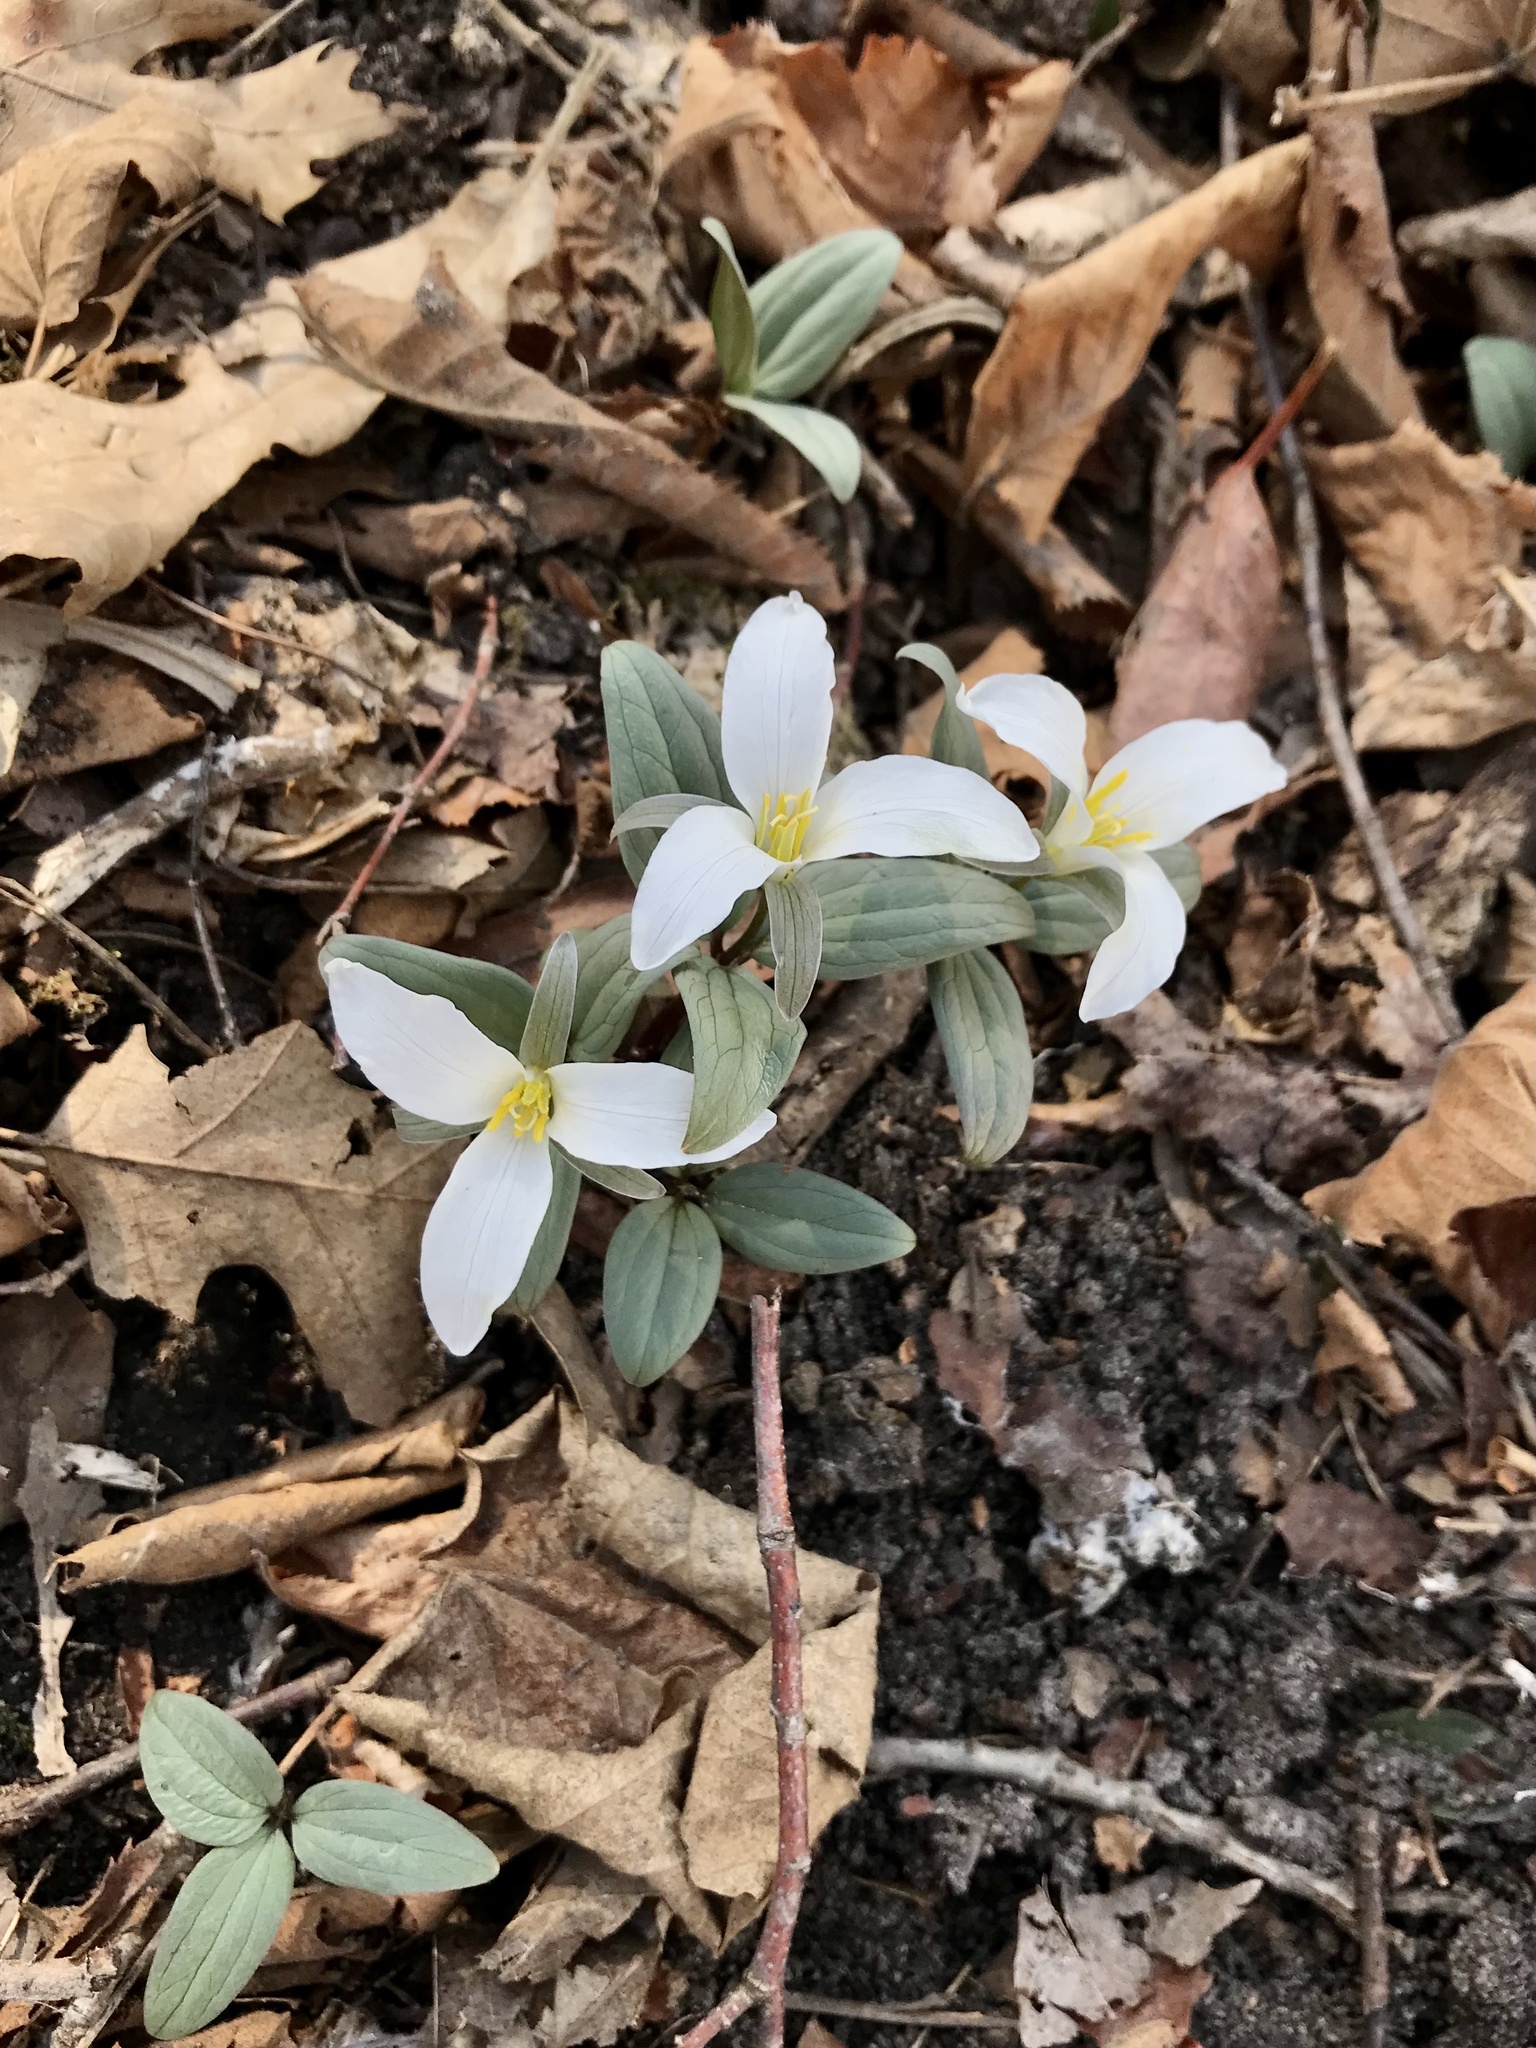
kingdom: Plantae
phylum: Tracheophyta
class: Liliopsida
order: Liliales
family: Melanthiaceae
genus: Trillium
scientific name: Trillium nivale
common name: Dwarf white trillium
